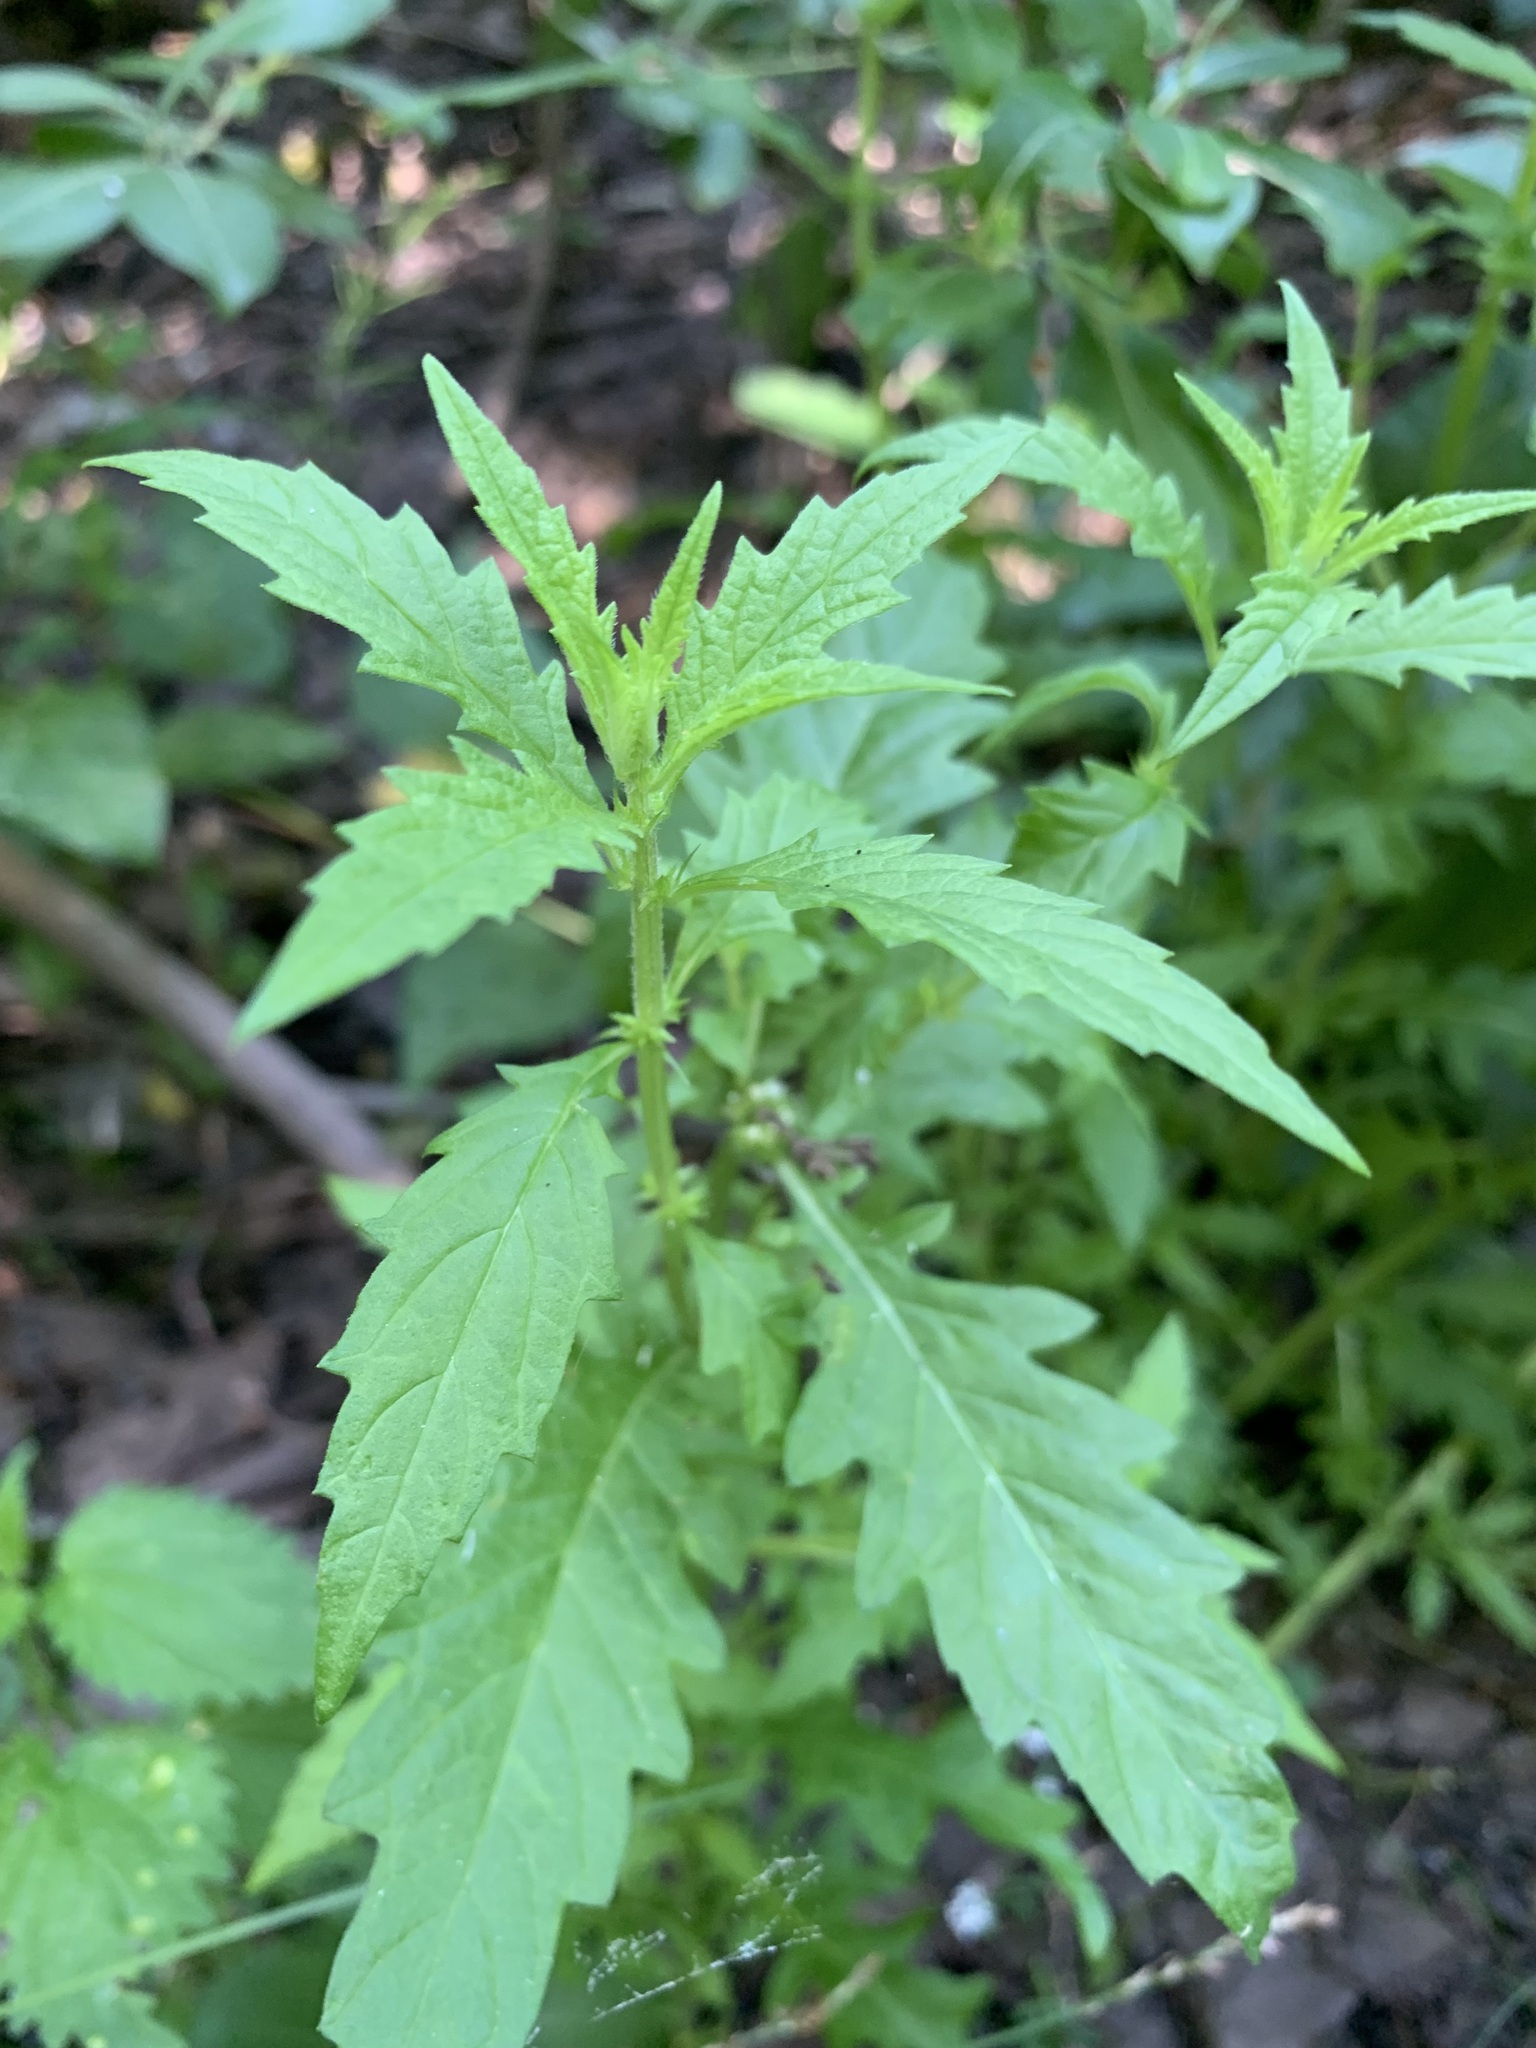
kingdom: Plantae
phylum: Tracheophyta
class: Magnoliopsida
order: Lamiales
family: Lamiaceae
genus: Lycopus
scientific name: Lycopus europaeus
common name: European bugleweed
